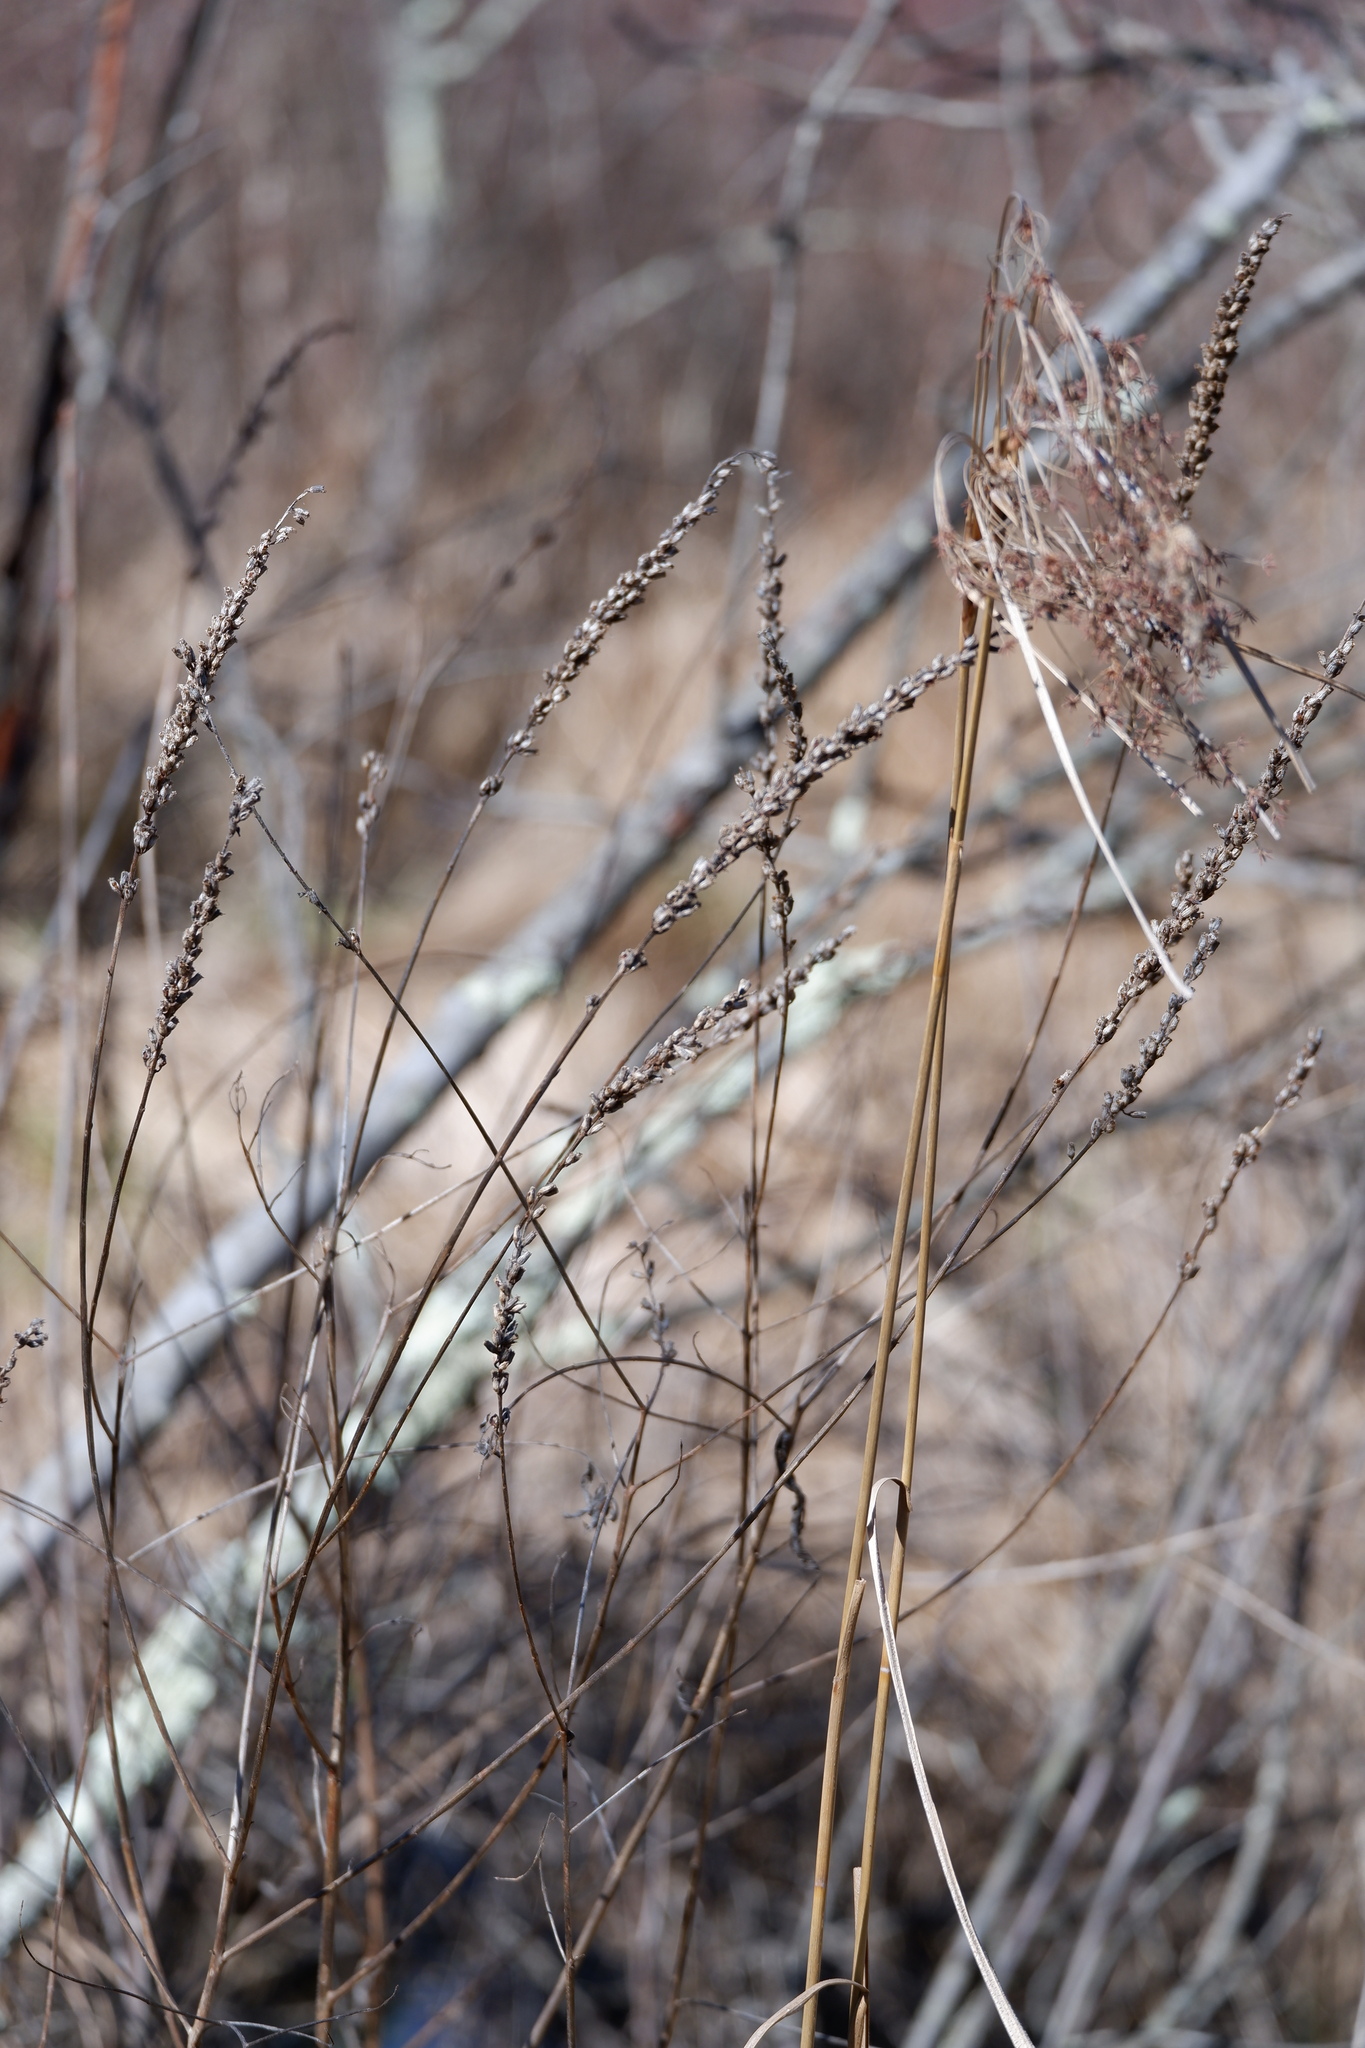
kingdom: Plantae
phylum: Tracheophyta
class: Magnoliopsida
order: Myrtales
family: Lythraceae
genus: Lythrum
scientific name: Lythrum salicaria
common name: Purple loosestrife
